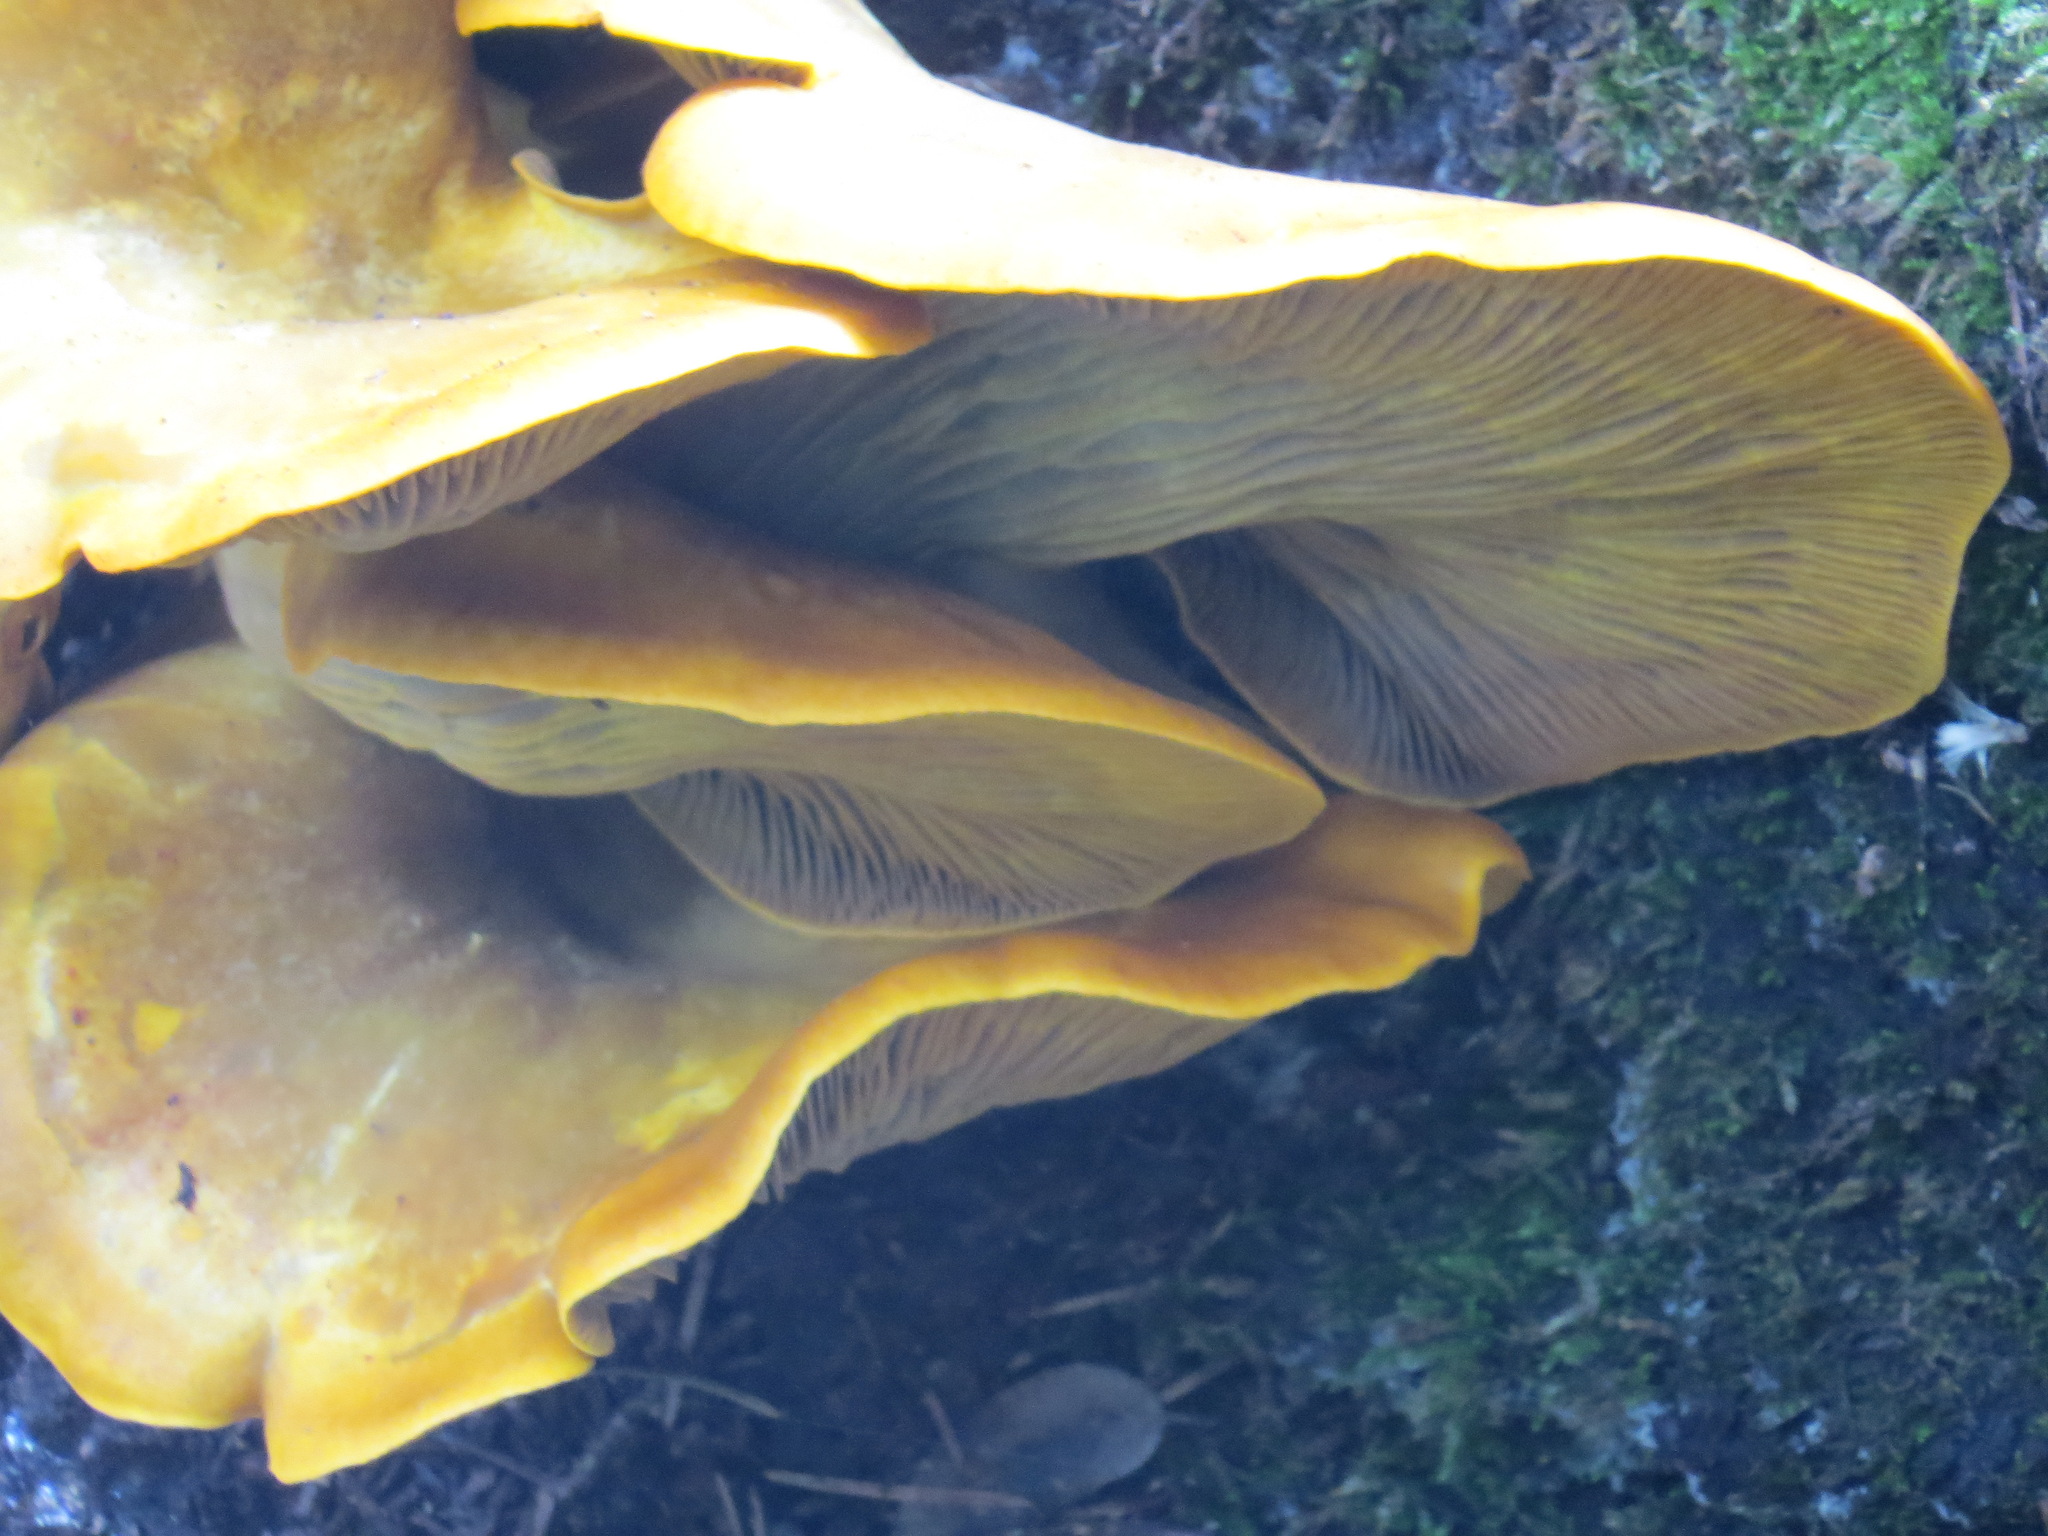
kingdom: Fungi
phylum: Basidiomycota
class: Agaricomycetes
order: Agaricales
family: Omphalotaceae
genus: Omphalotus
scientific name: Omphalotus olivascens
